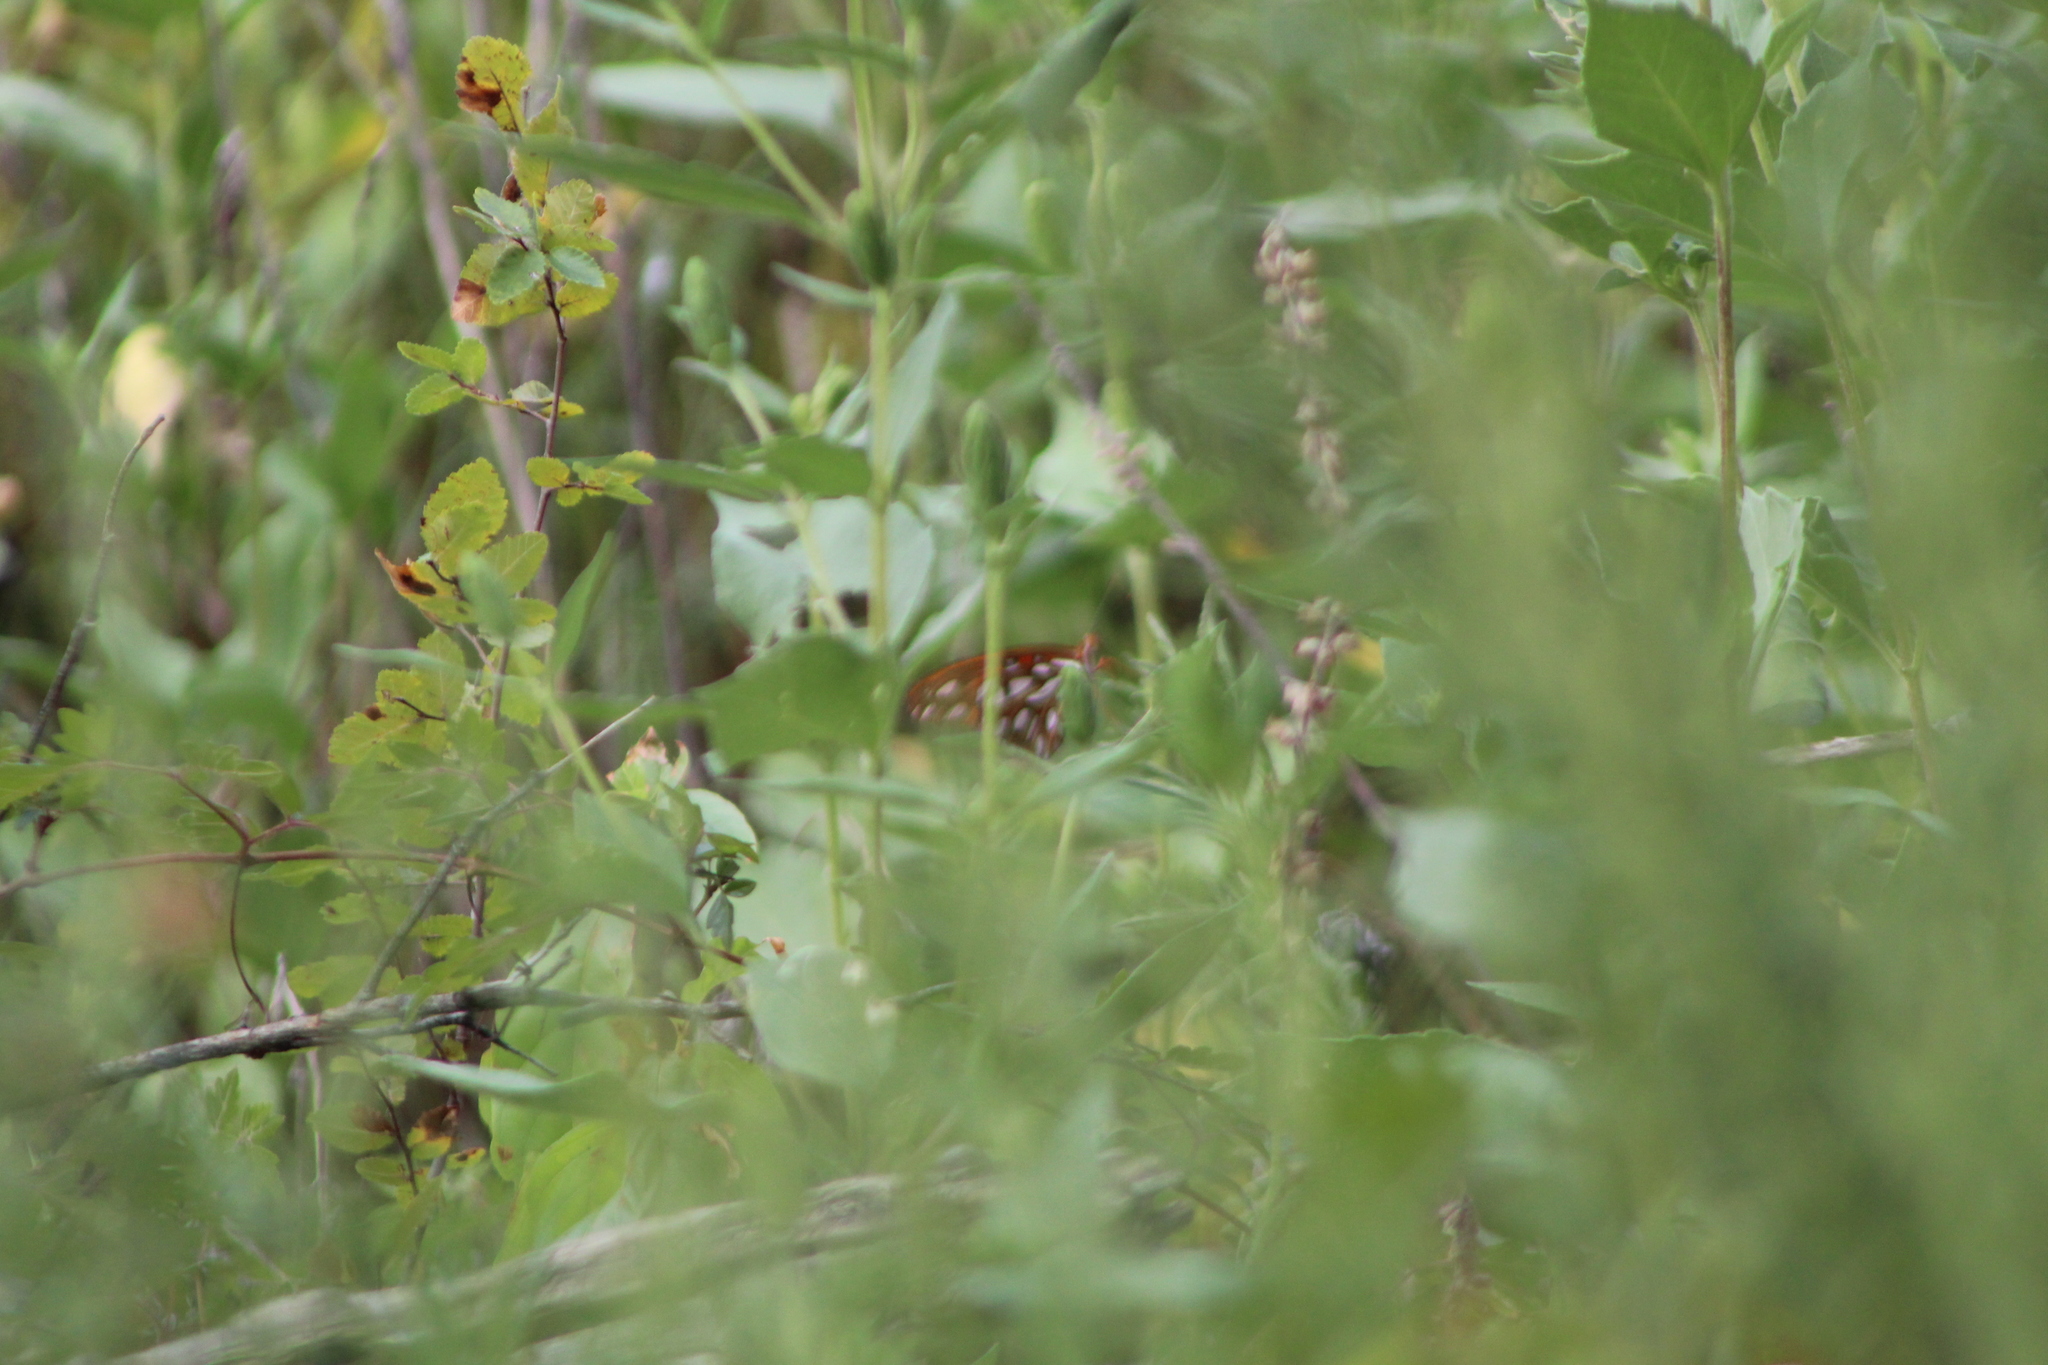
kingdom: Animalia
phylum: Arthropoda
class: Insecta
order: Lepidoptera
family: Nymphalidae
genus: Dione
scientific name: Dione vanillae
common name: Gulf fritillary
